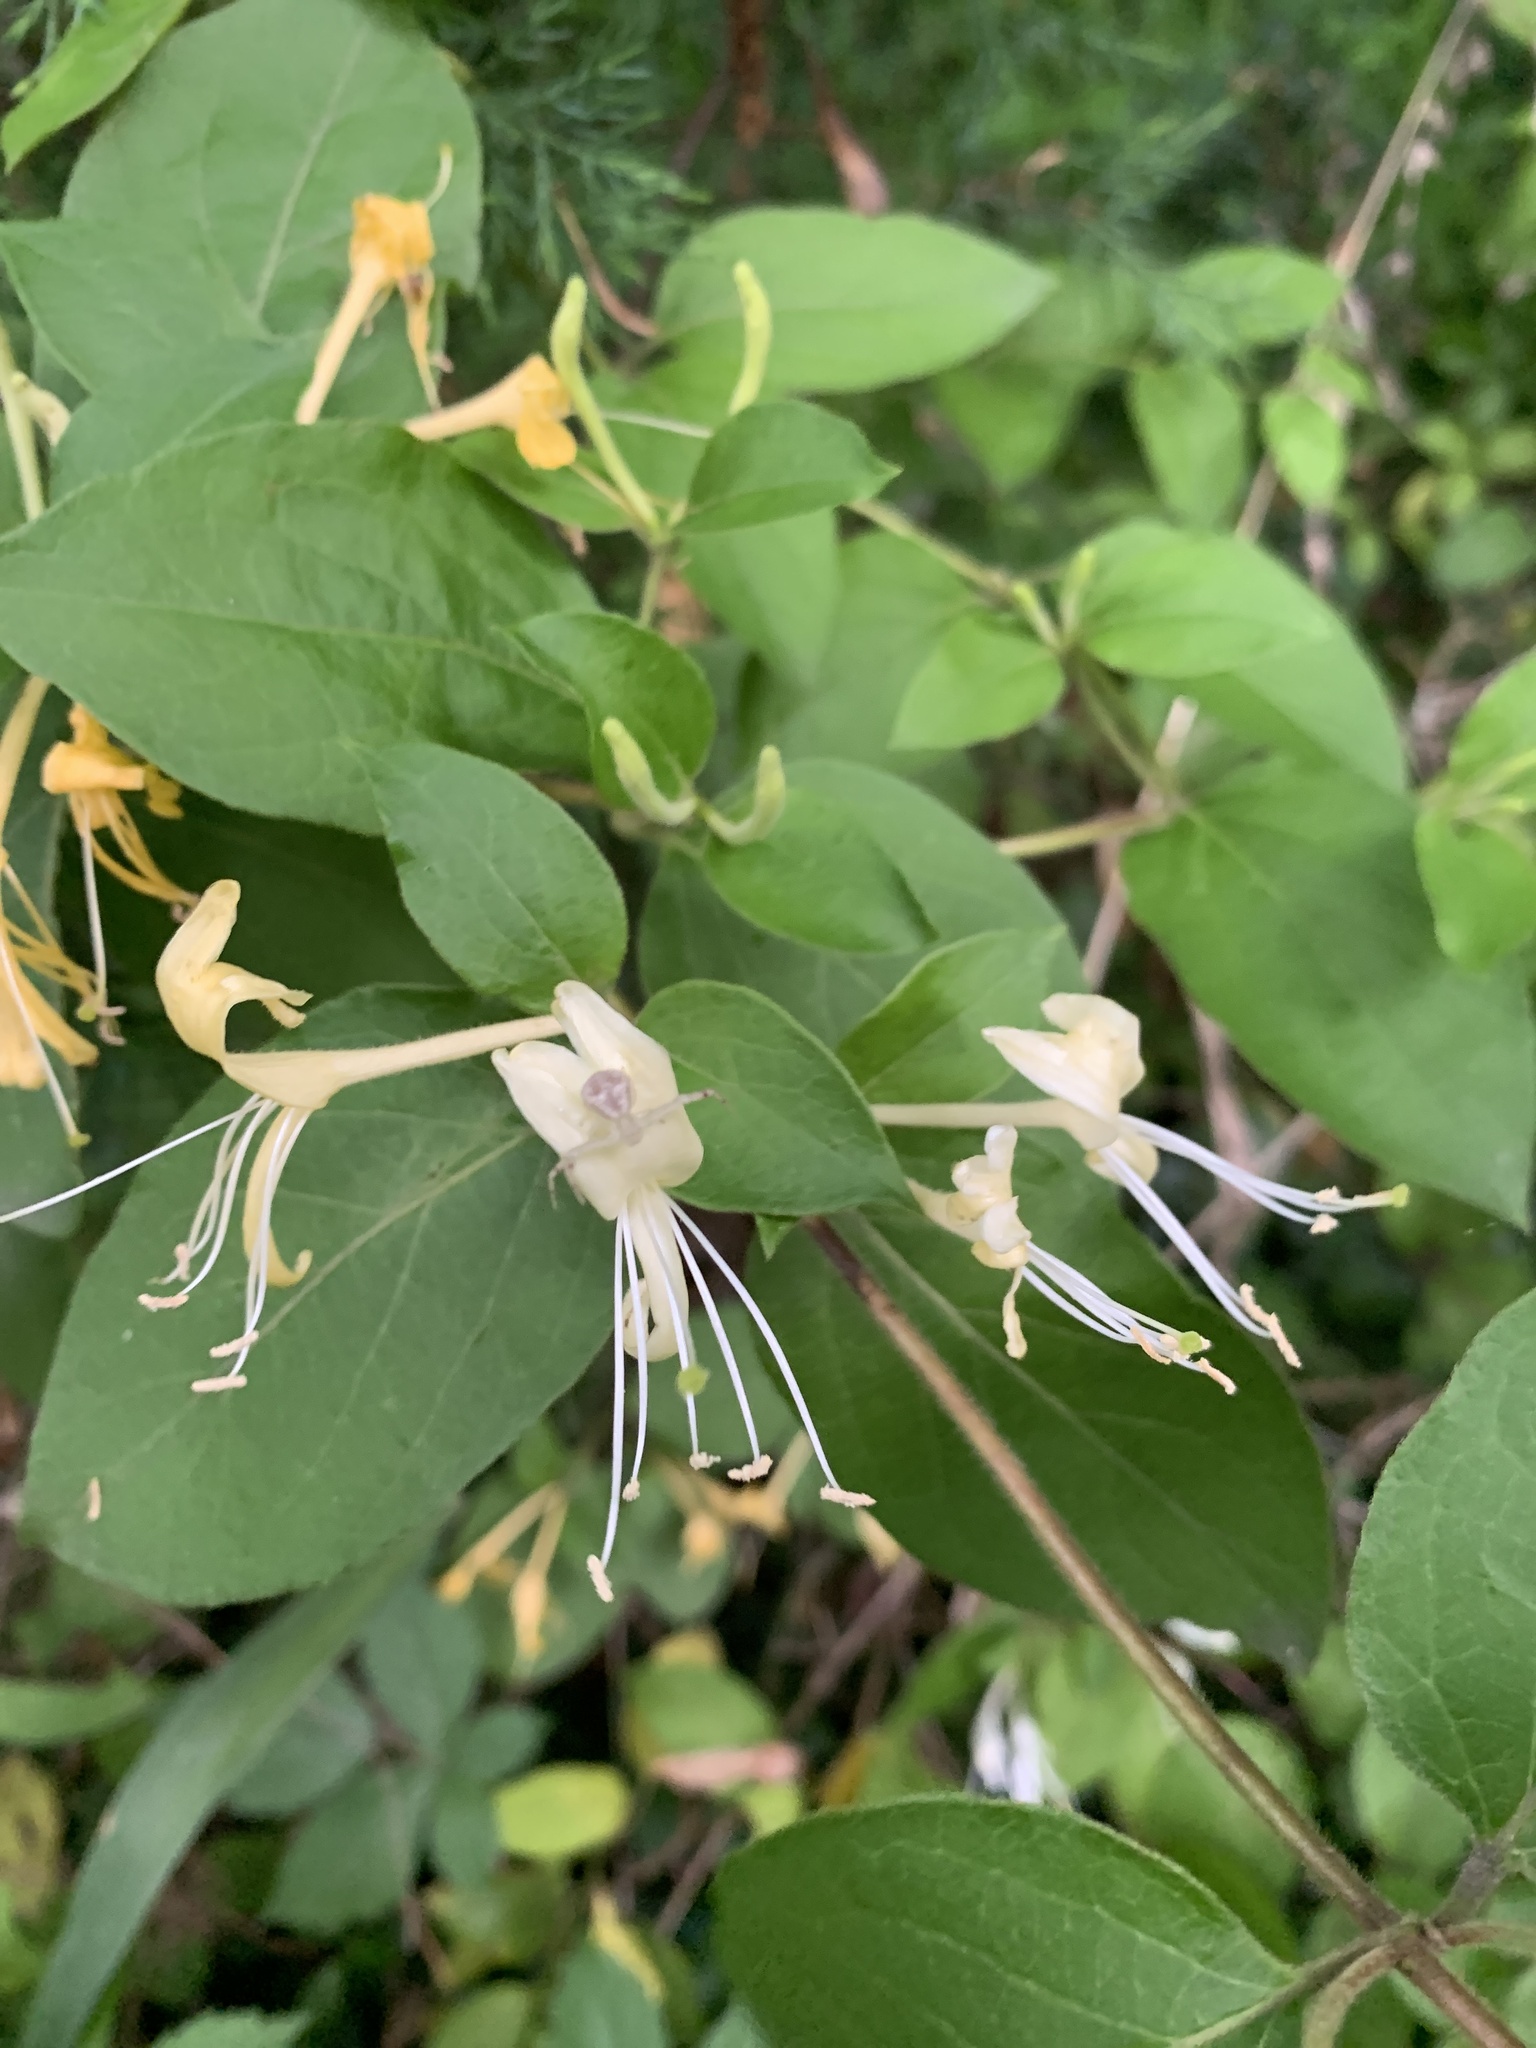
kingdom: Plantae
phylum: Tracheophyta
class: Magnoliopsida
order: Dipsacales
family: Caprifoliaceae
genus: Lonicera
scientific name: Lonicera japonica
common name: Japanese honeysuckle
